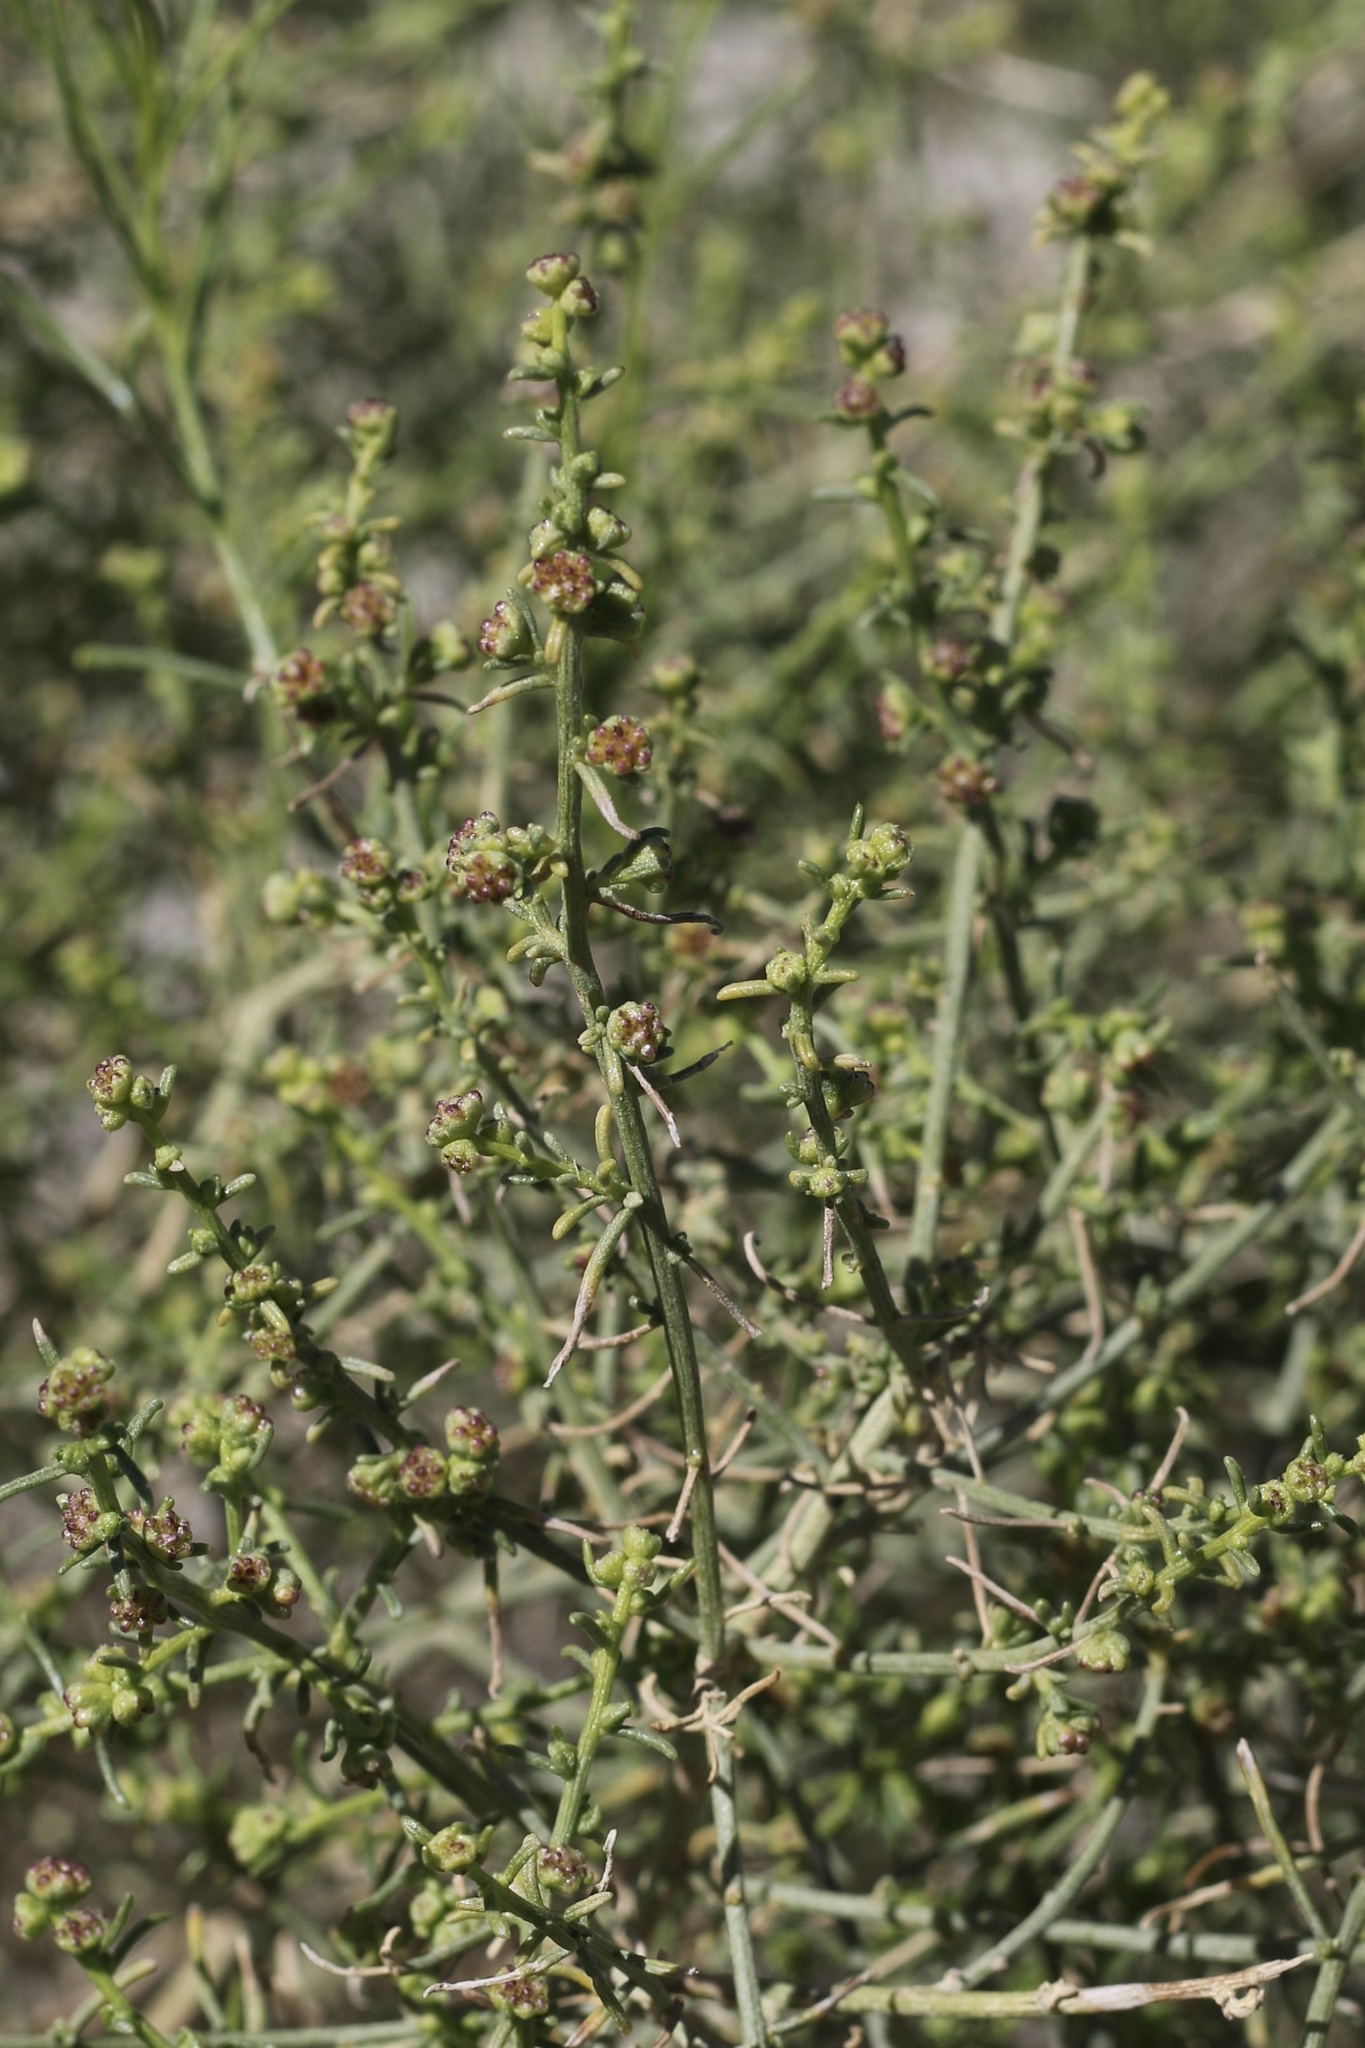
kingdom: Plantae
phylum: Tracheophyta
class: Magnoliopsida
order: Asterales
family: Asteraceae
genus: Ambrosia
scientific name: Ambrosia salsola
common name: Burrobrush
